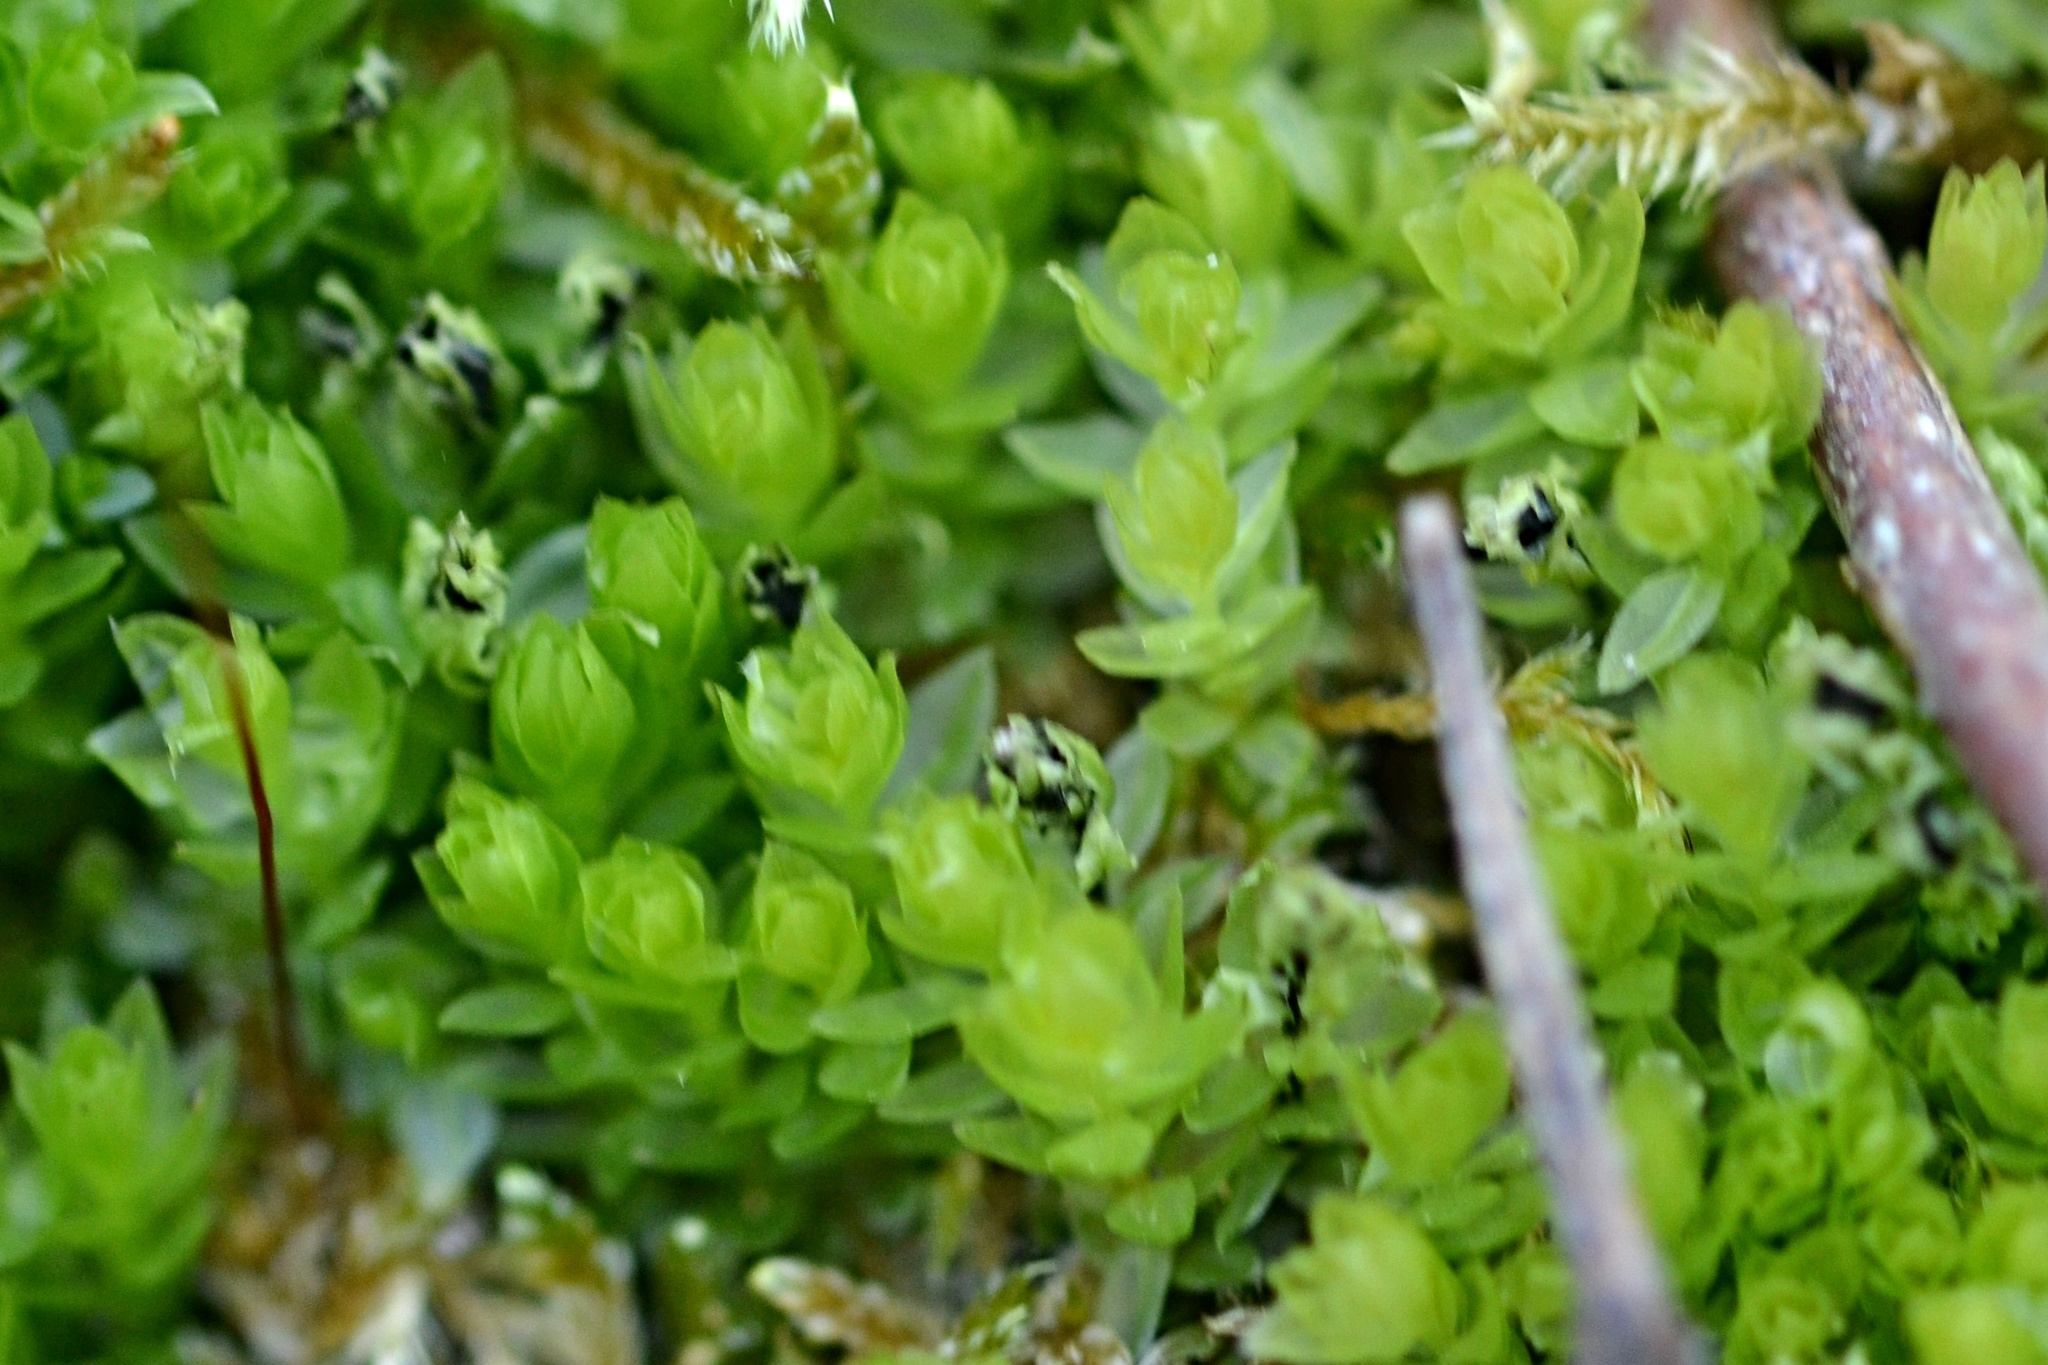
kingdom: Plantae
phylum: Bryophyta
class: Bryopsida
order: Bryales
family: Mniaceae
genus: Mnium
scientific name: Mnium stellare
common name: Star leafy moss
